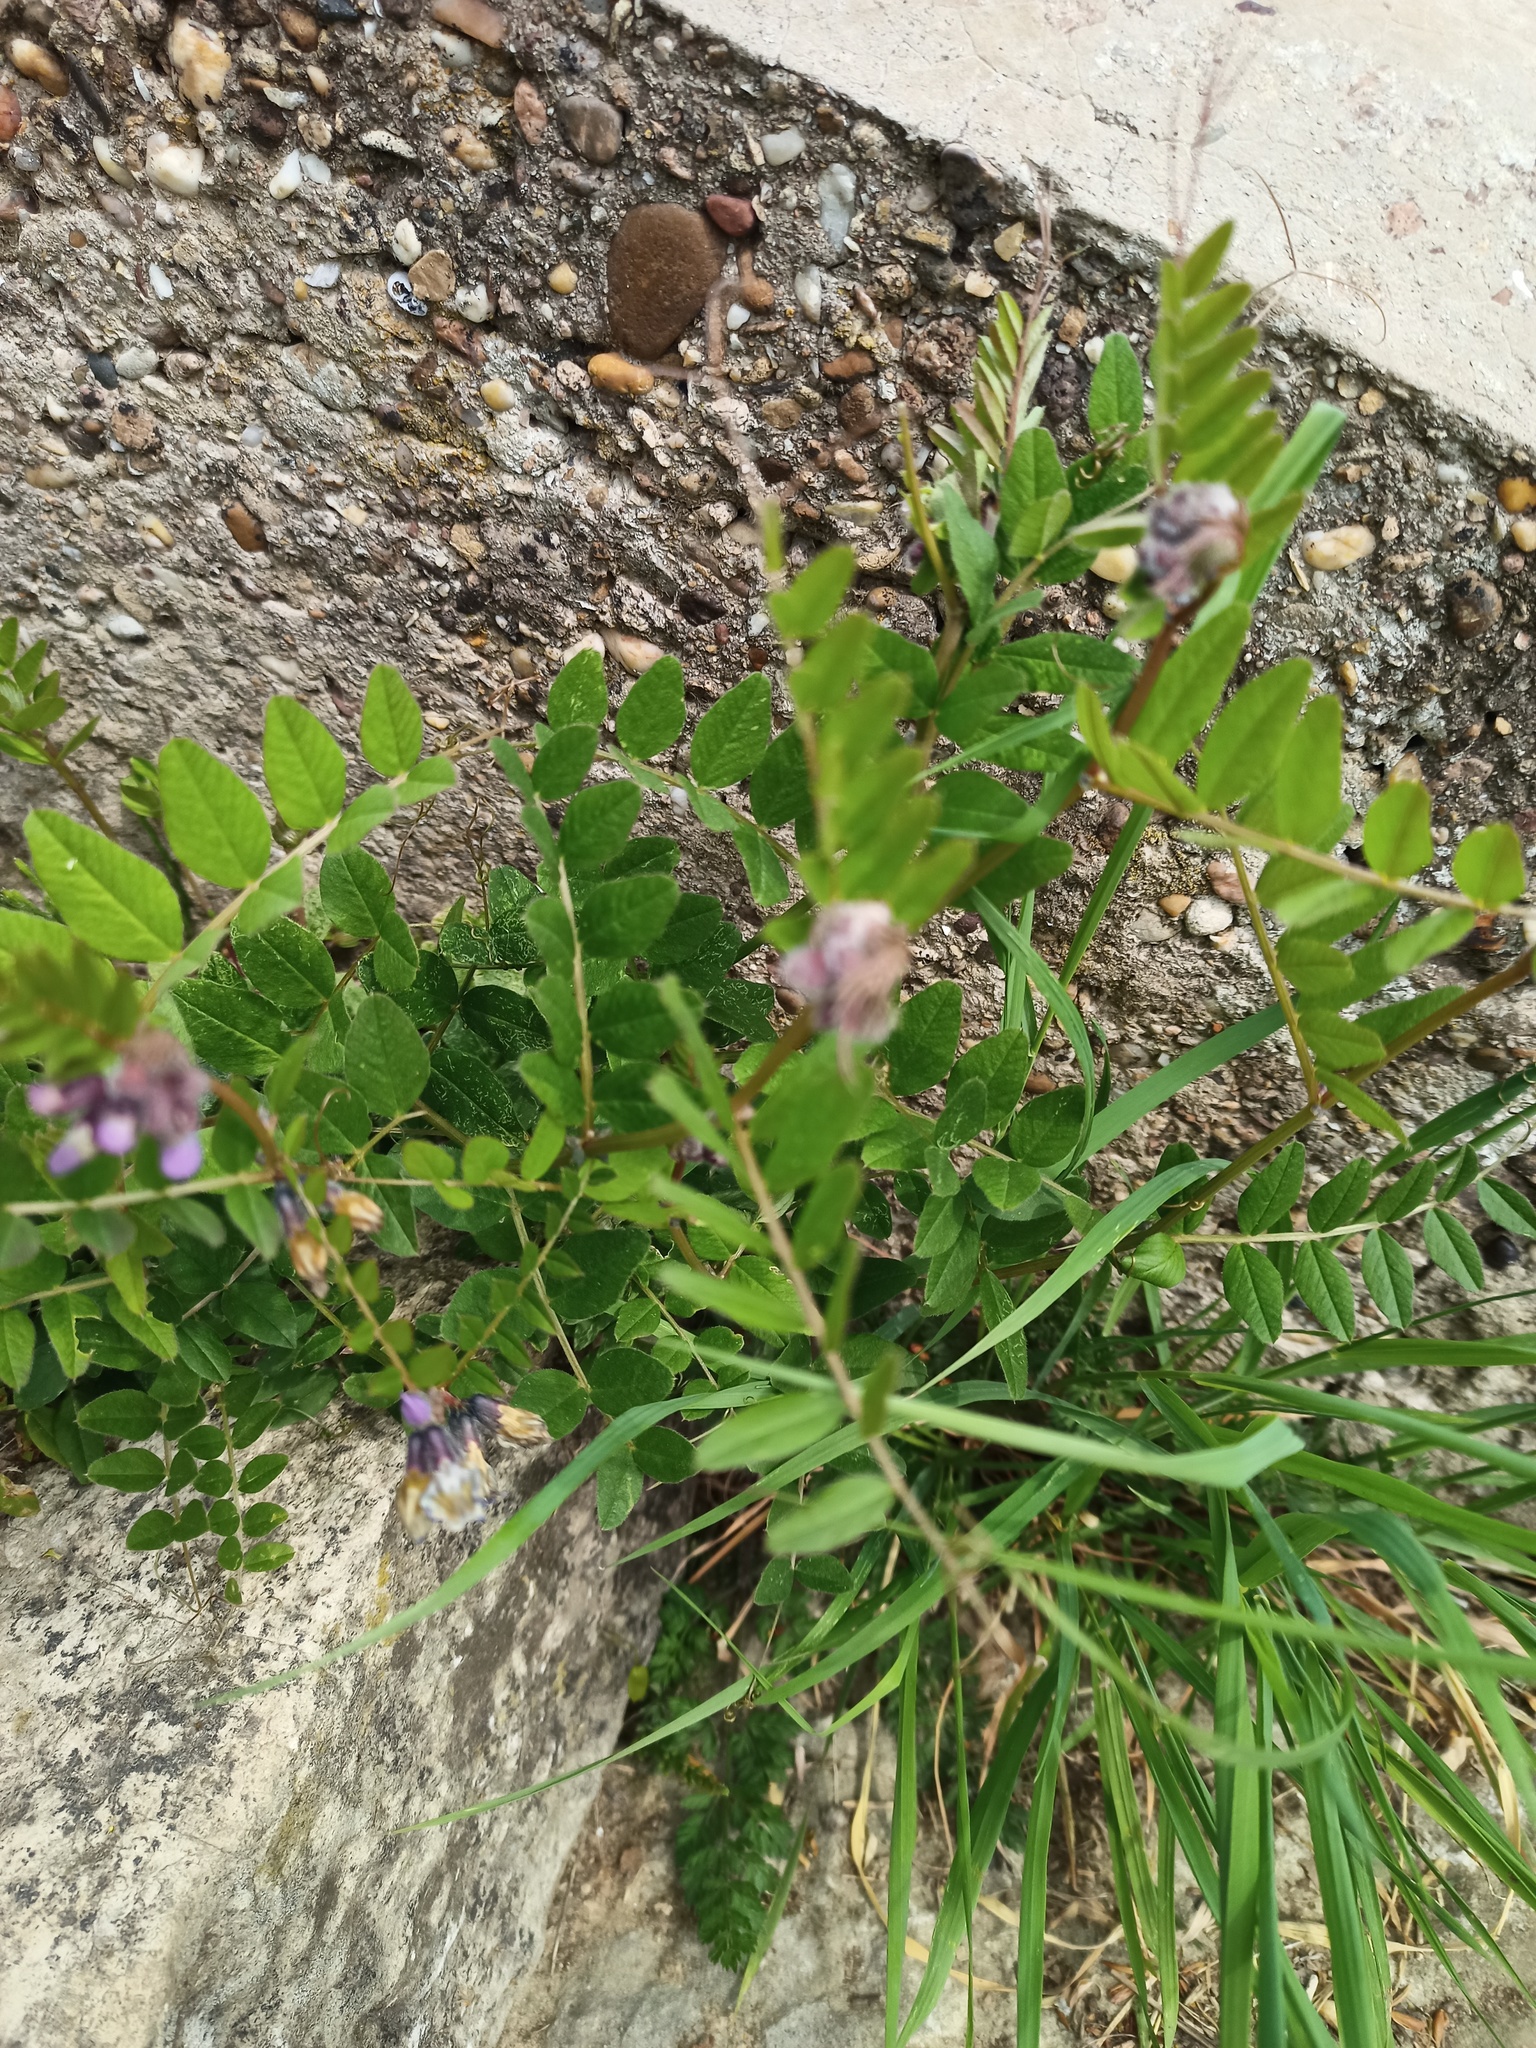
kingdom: Plantae
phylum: Tracheophyta
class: Magnoliopsida
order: Fabales
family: Fabaceae
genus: Vicia
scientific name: Vicia sepium
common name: Bush vetch
